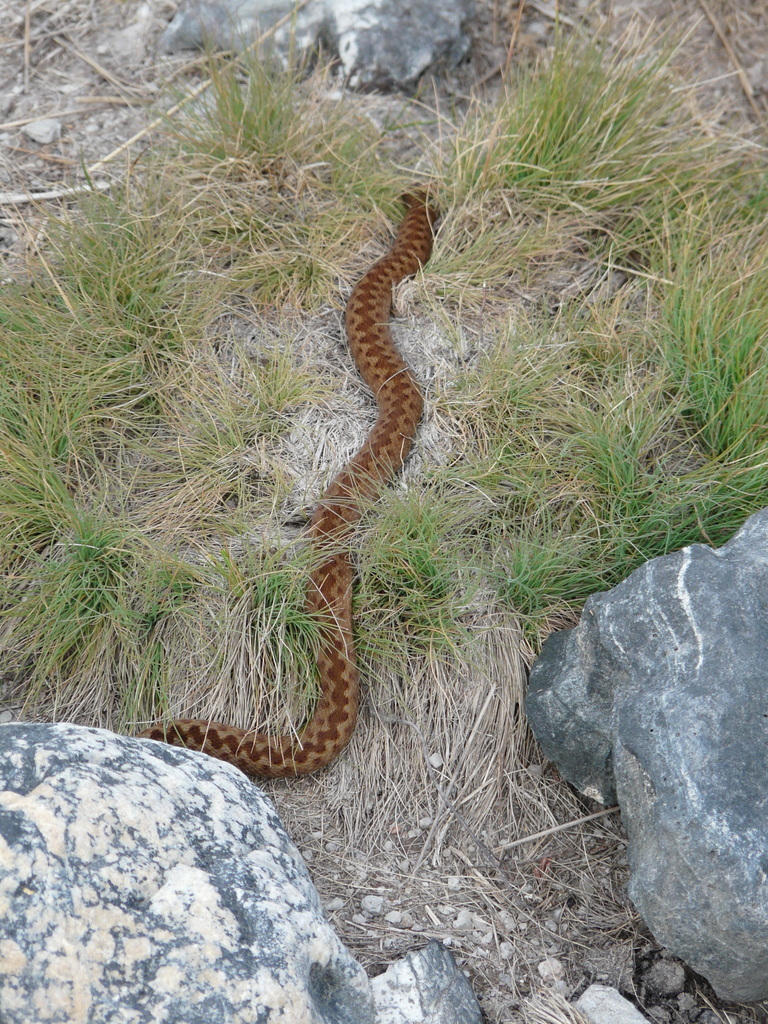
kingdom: Animalia
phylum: Chordata
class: Squamata
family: Viperidae
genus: Vipera
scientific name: Vipera berus
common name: Adder
